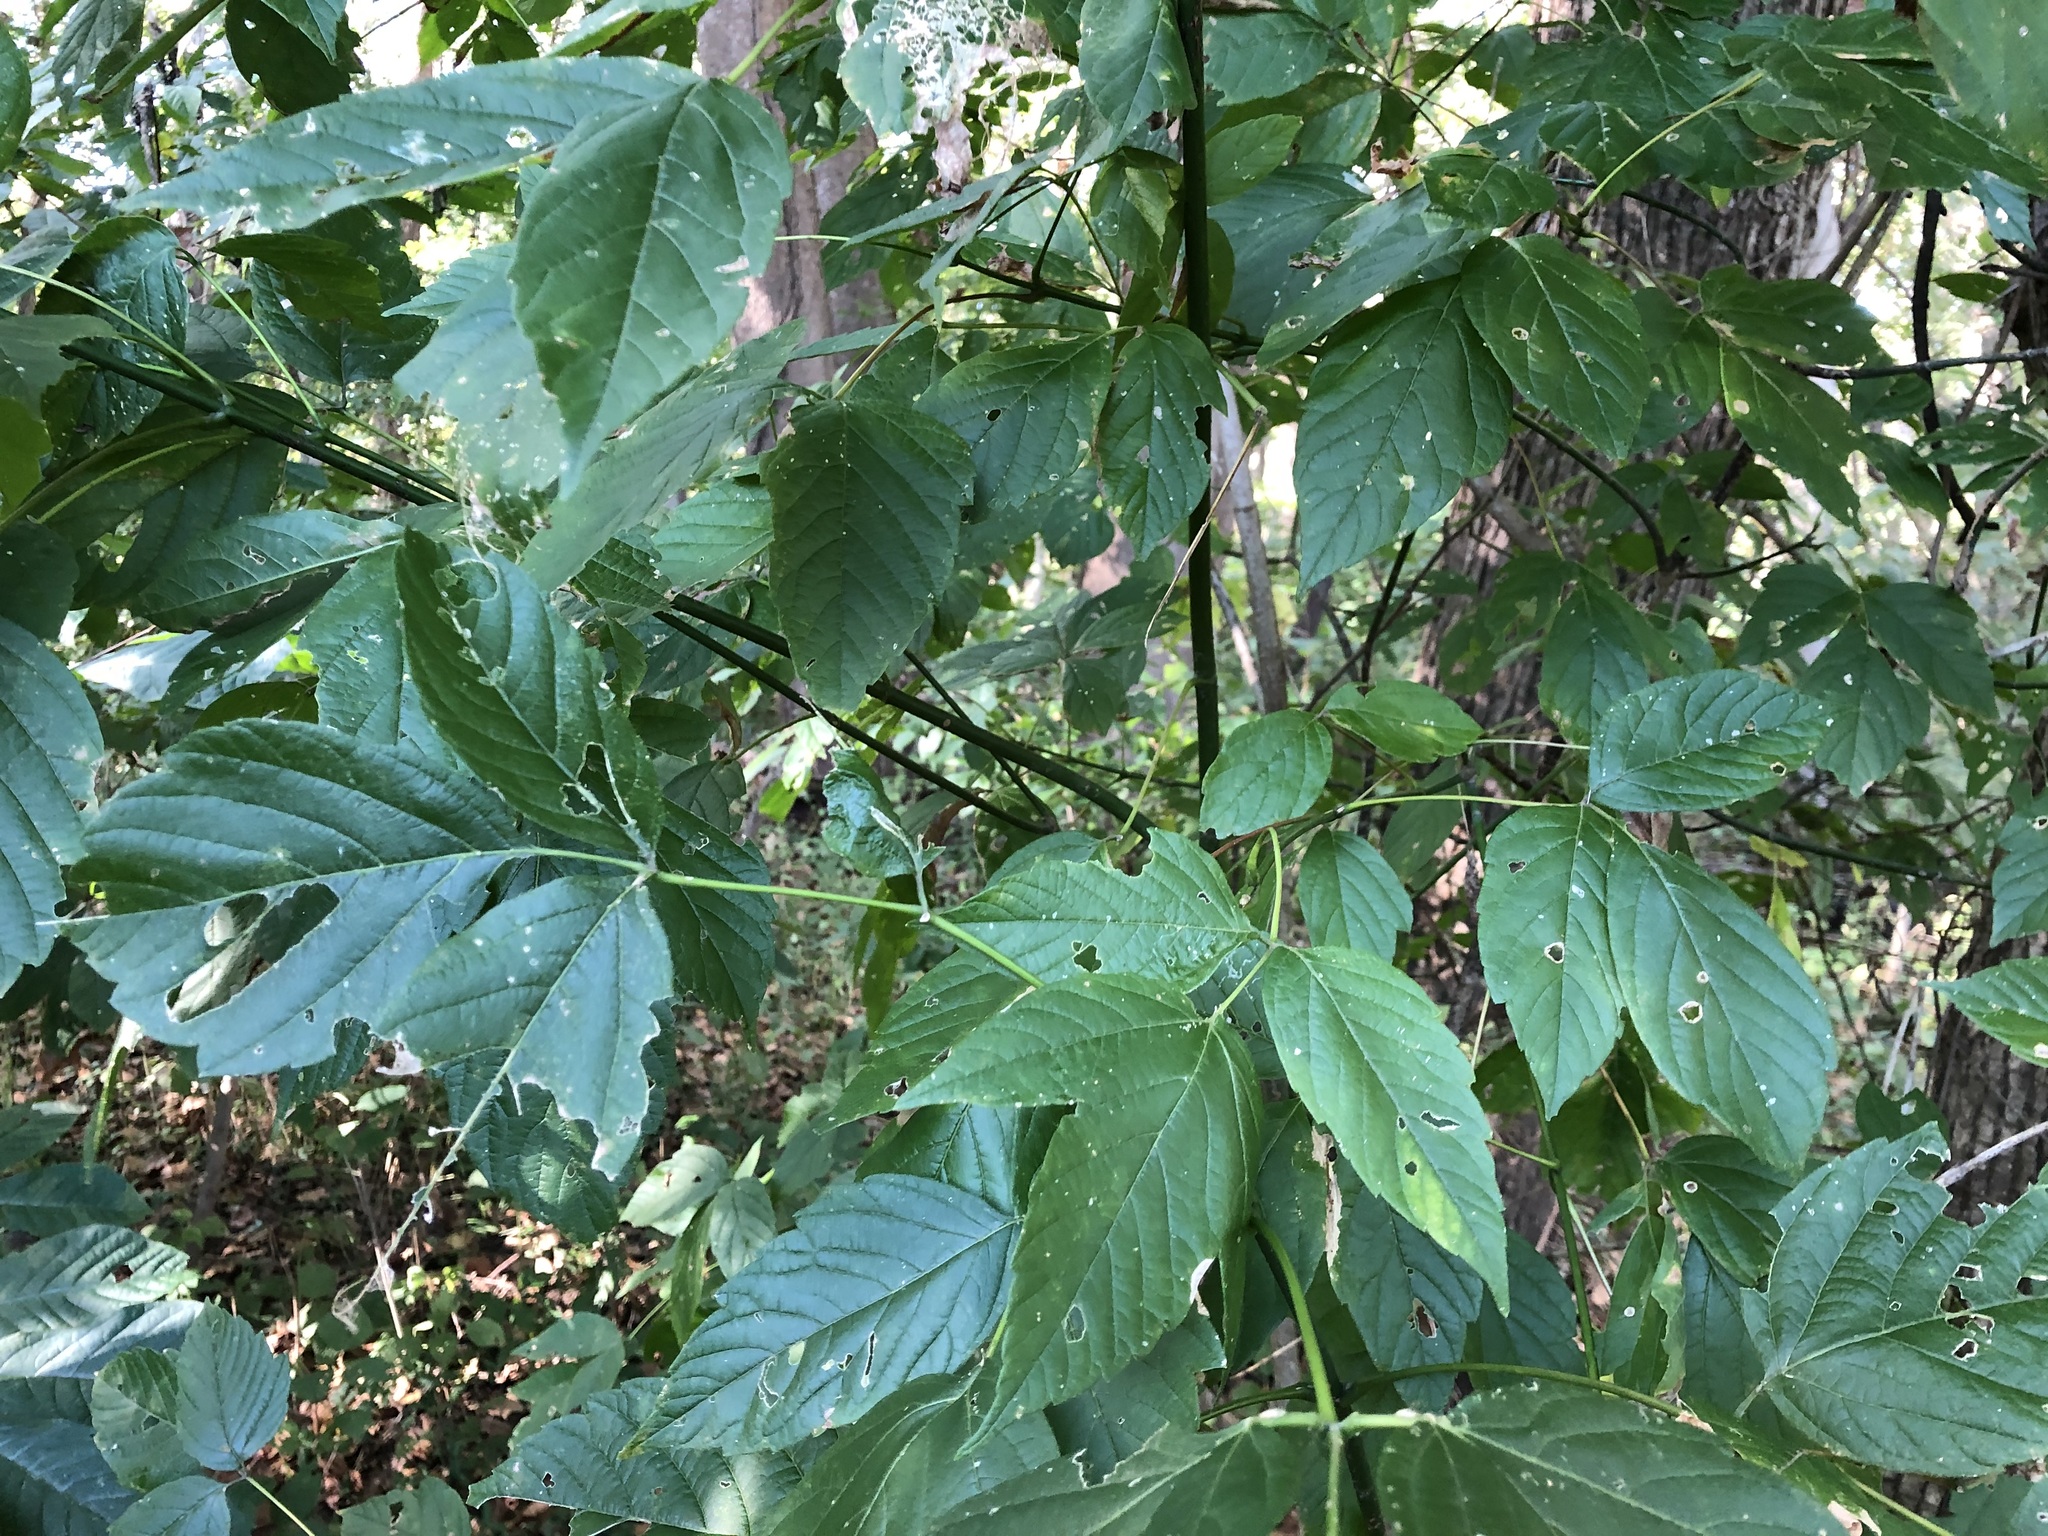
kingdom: Plantae
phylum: Tracheophyta
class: Magnoliopsida
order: Sapindales
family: Sapindaceae
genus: Acer
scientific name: Acer negundo
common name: Ashleaf maple
